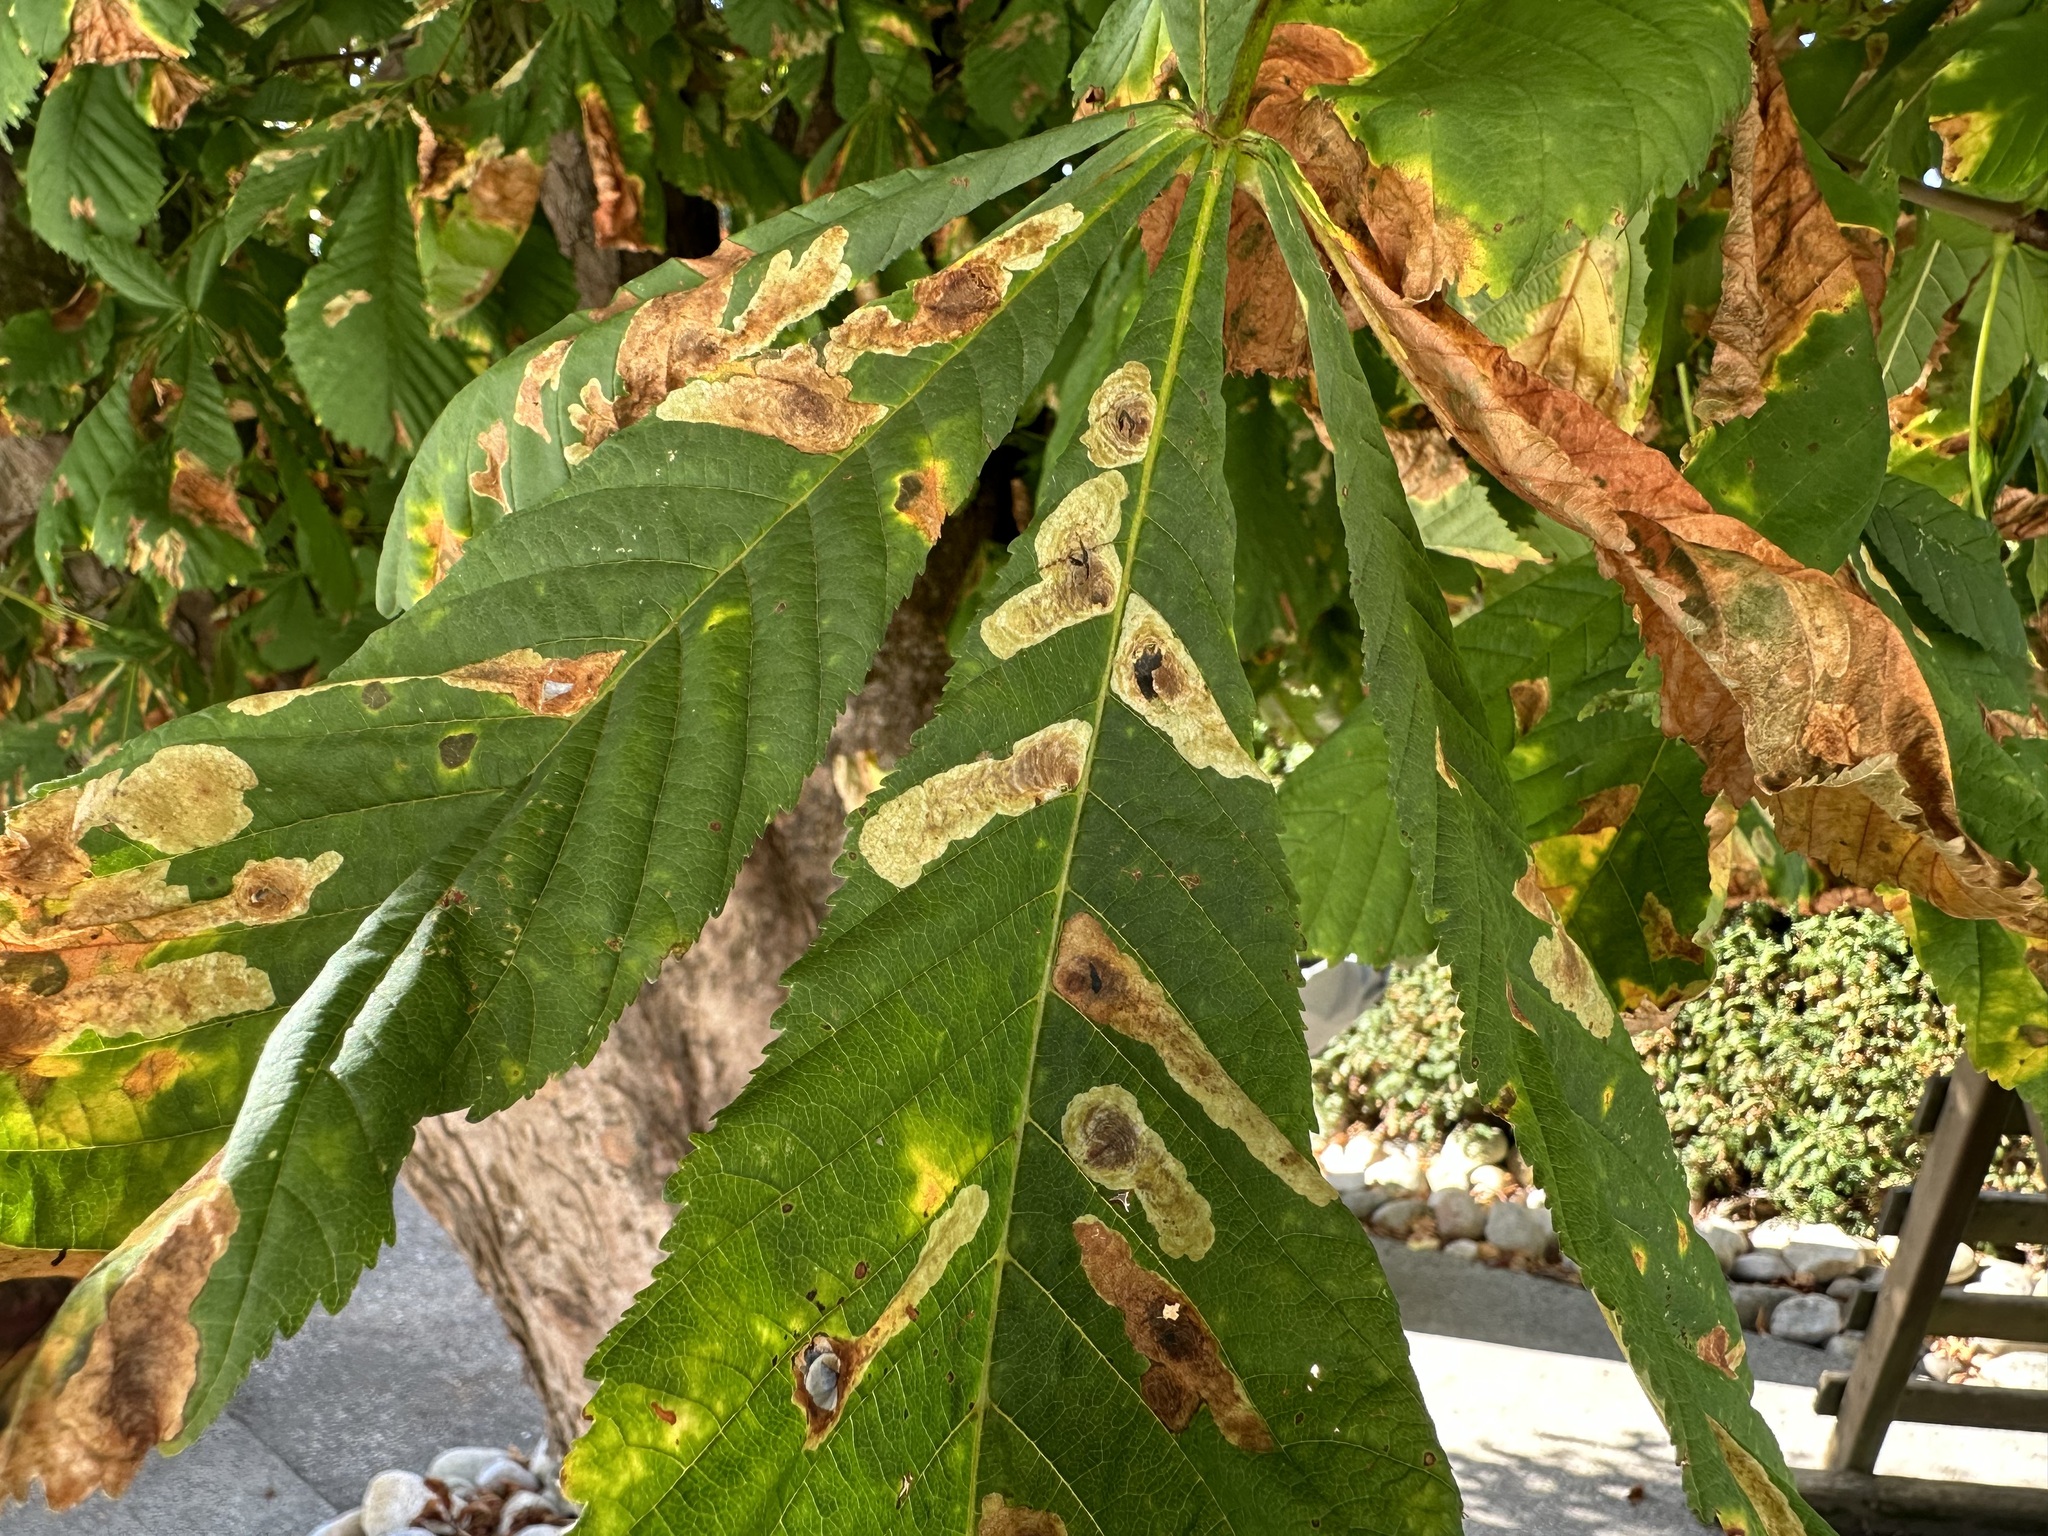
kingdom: Animalia
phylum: Arthropoda
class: Insecta
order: Lepidoptera
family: Gracillariidae
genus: Cameraria
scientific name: Cameraria ohridella
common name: Horse-chestnut leaf-miner
